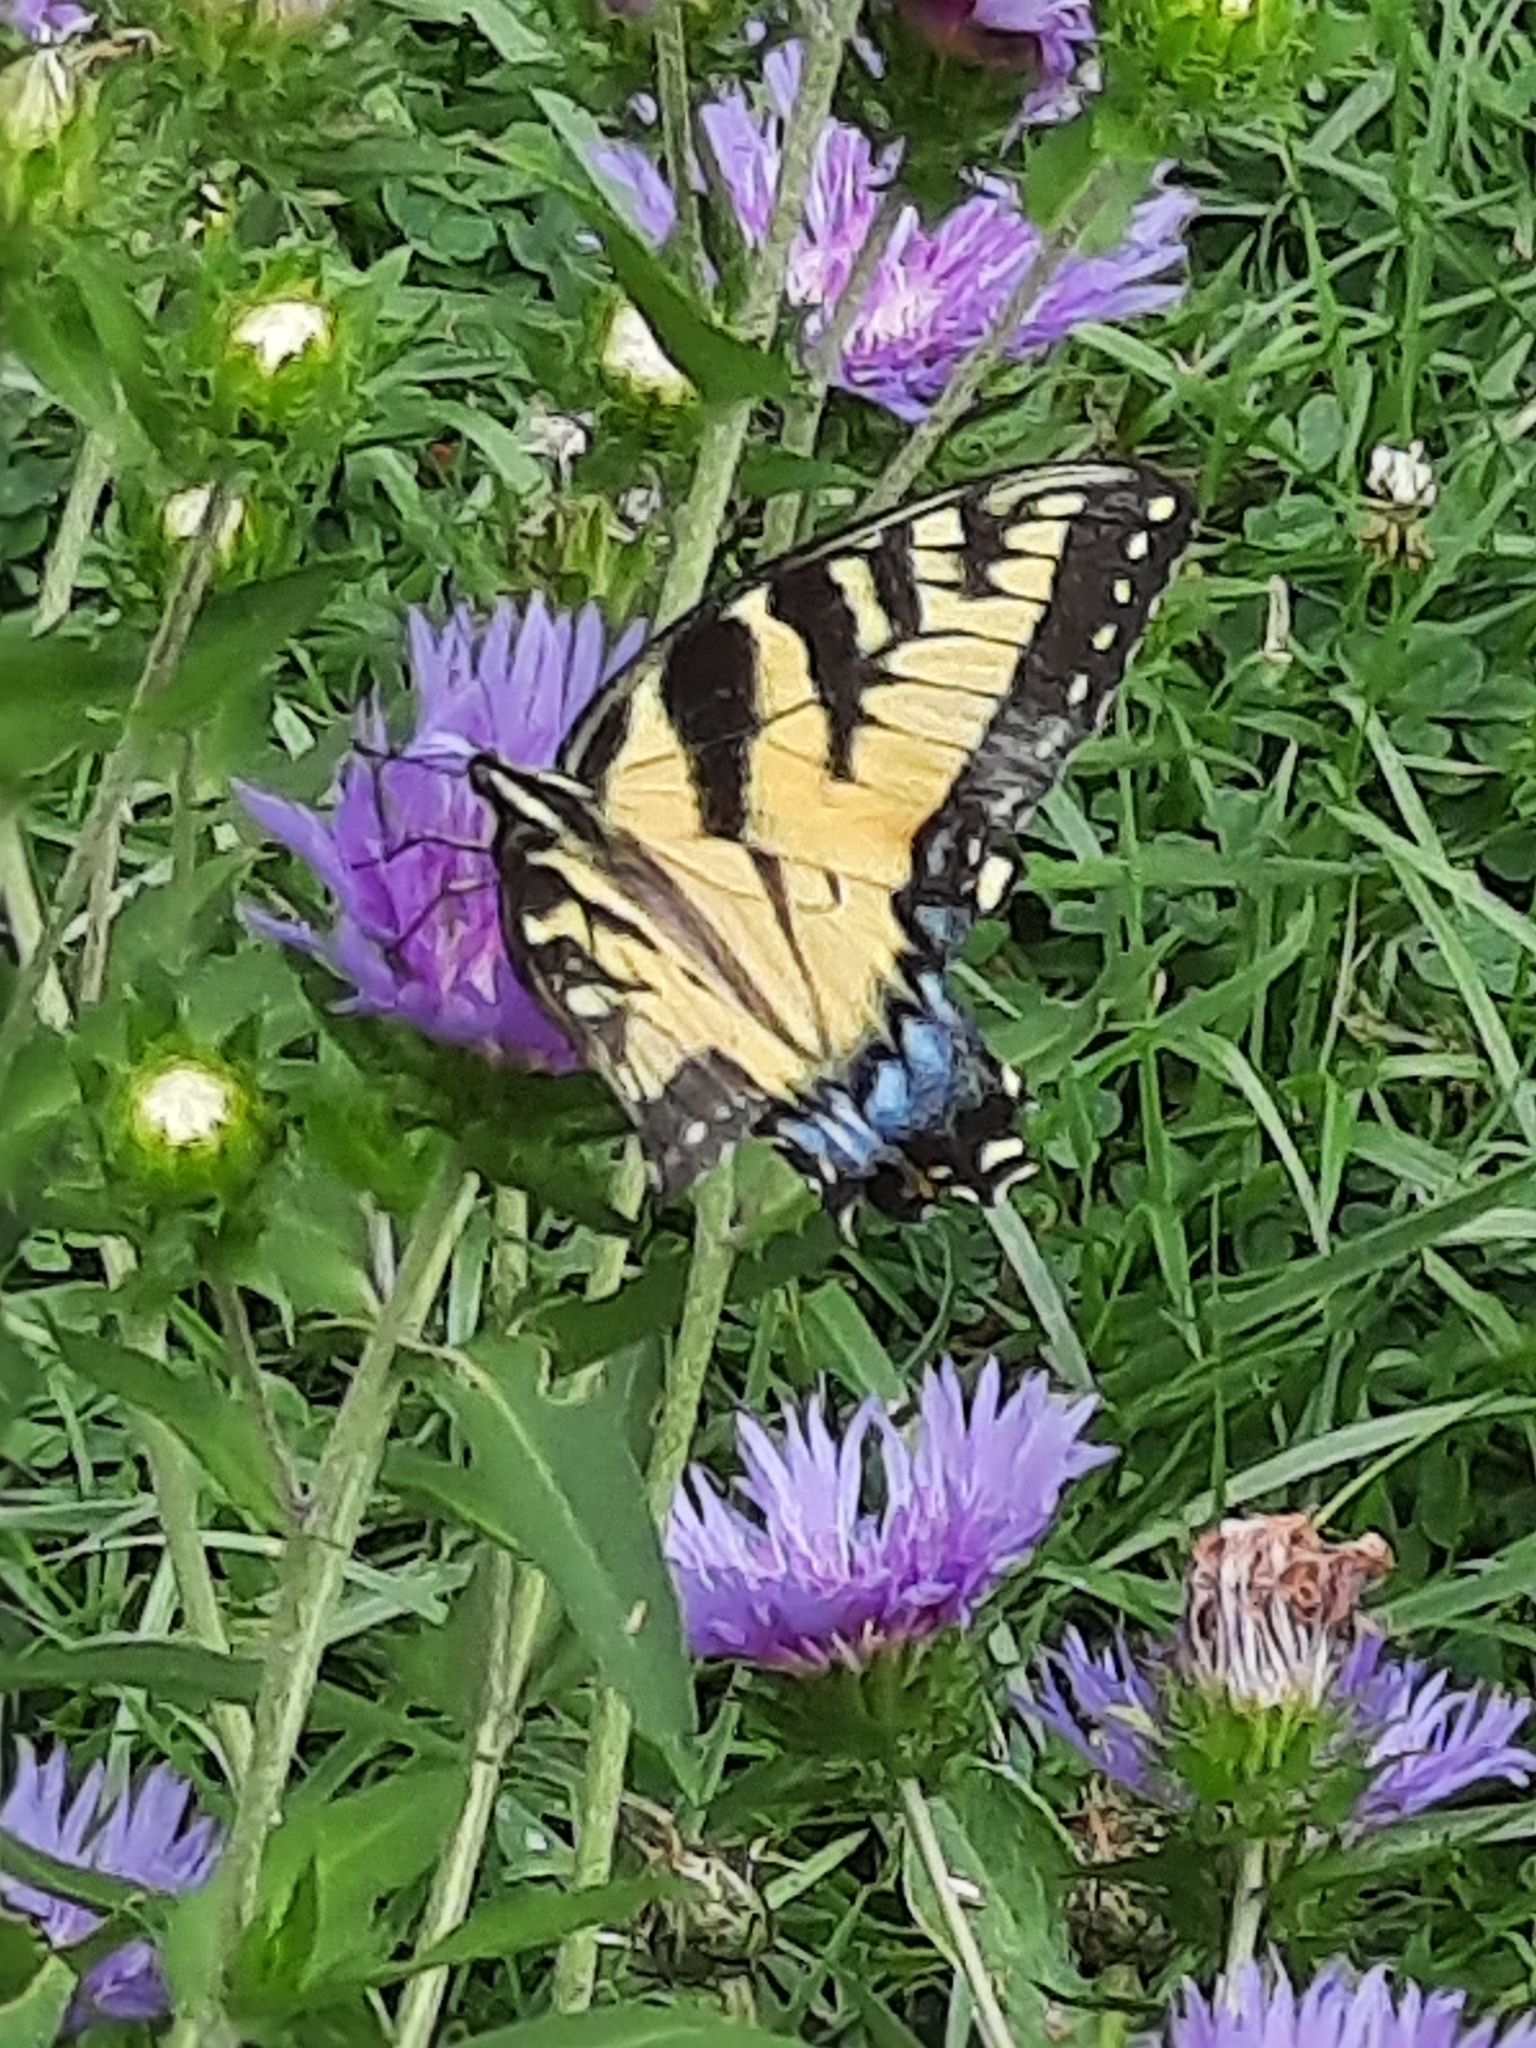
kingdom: Animalia
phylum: Arthropoda
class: Insecta
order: Lepidoptera
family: Papilionidae
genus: Papilio
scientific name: Papilio glaucus
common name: Tiger swallowtail
